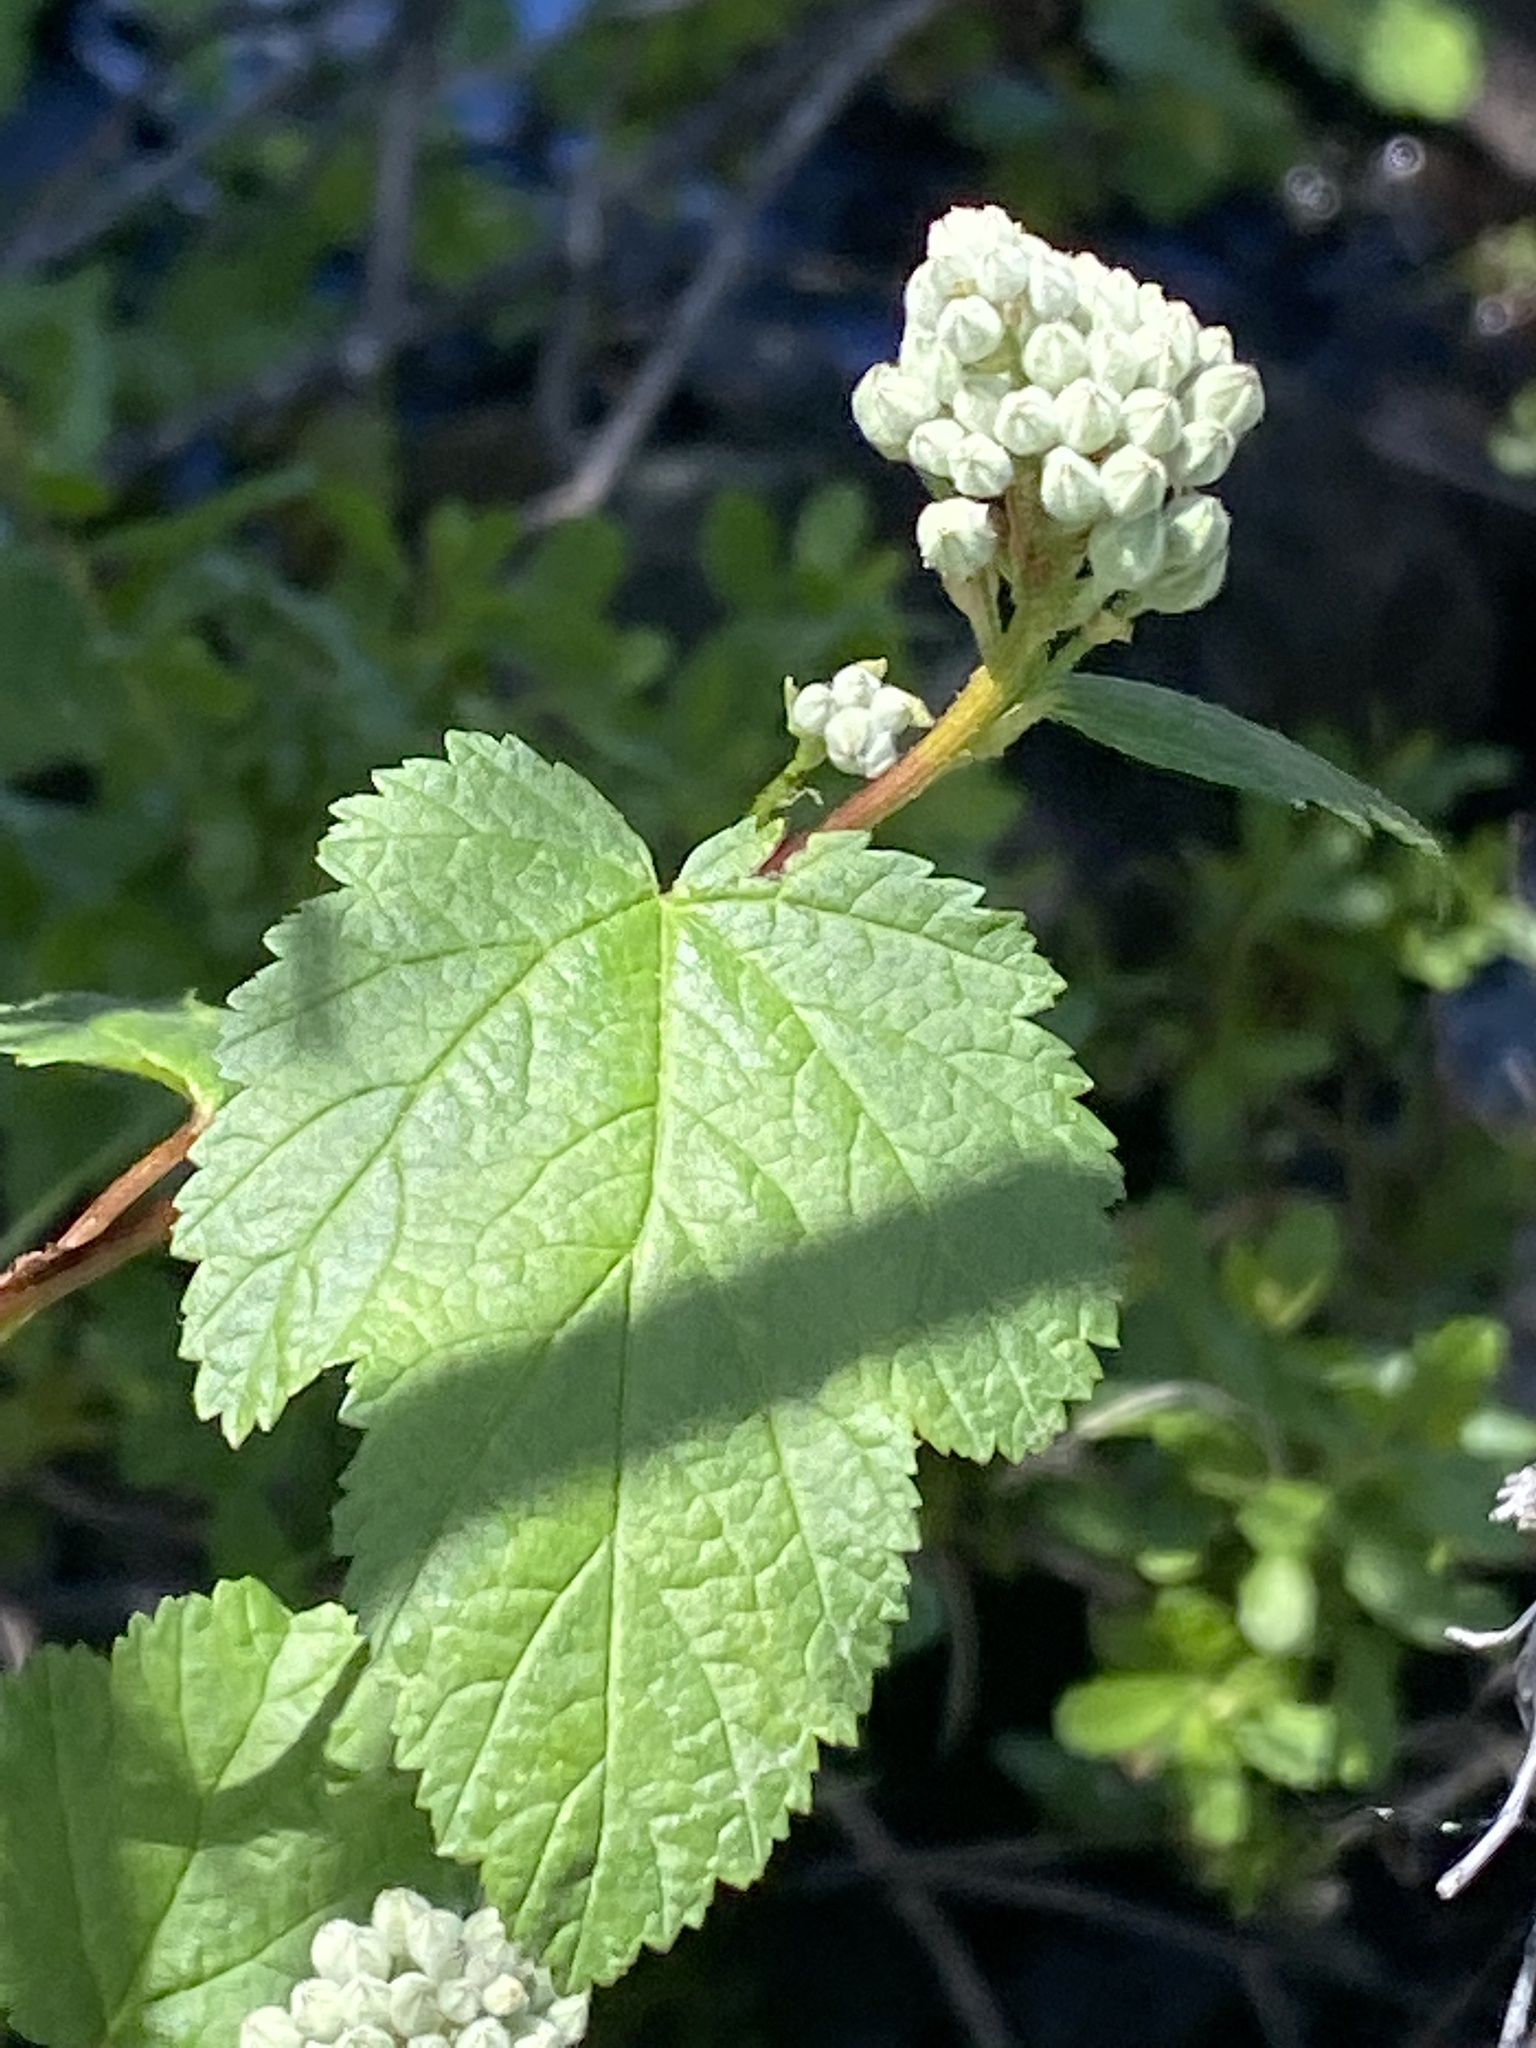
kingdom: Plantae
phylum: Tracheophyta
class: Magnoliopsida
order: Rosales
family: Rosaceae
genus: Physocarpus
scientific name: Physocarpus capitatus
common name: Pacific ninebark
